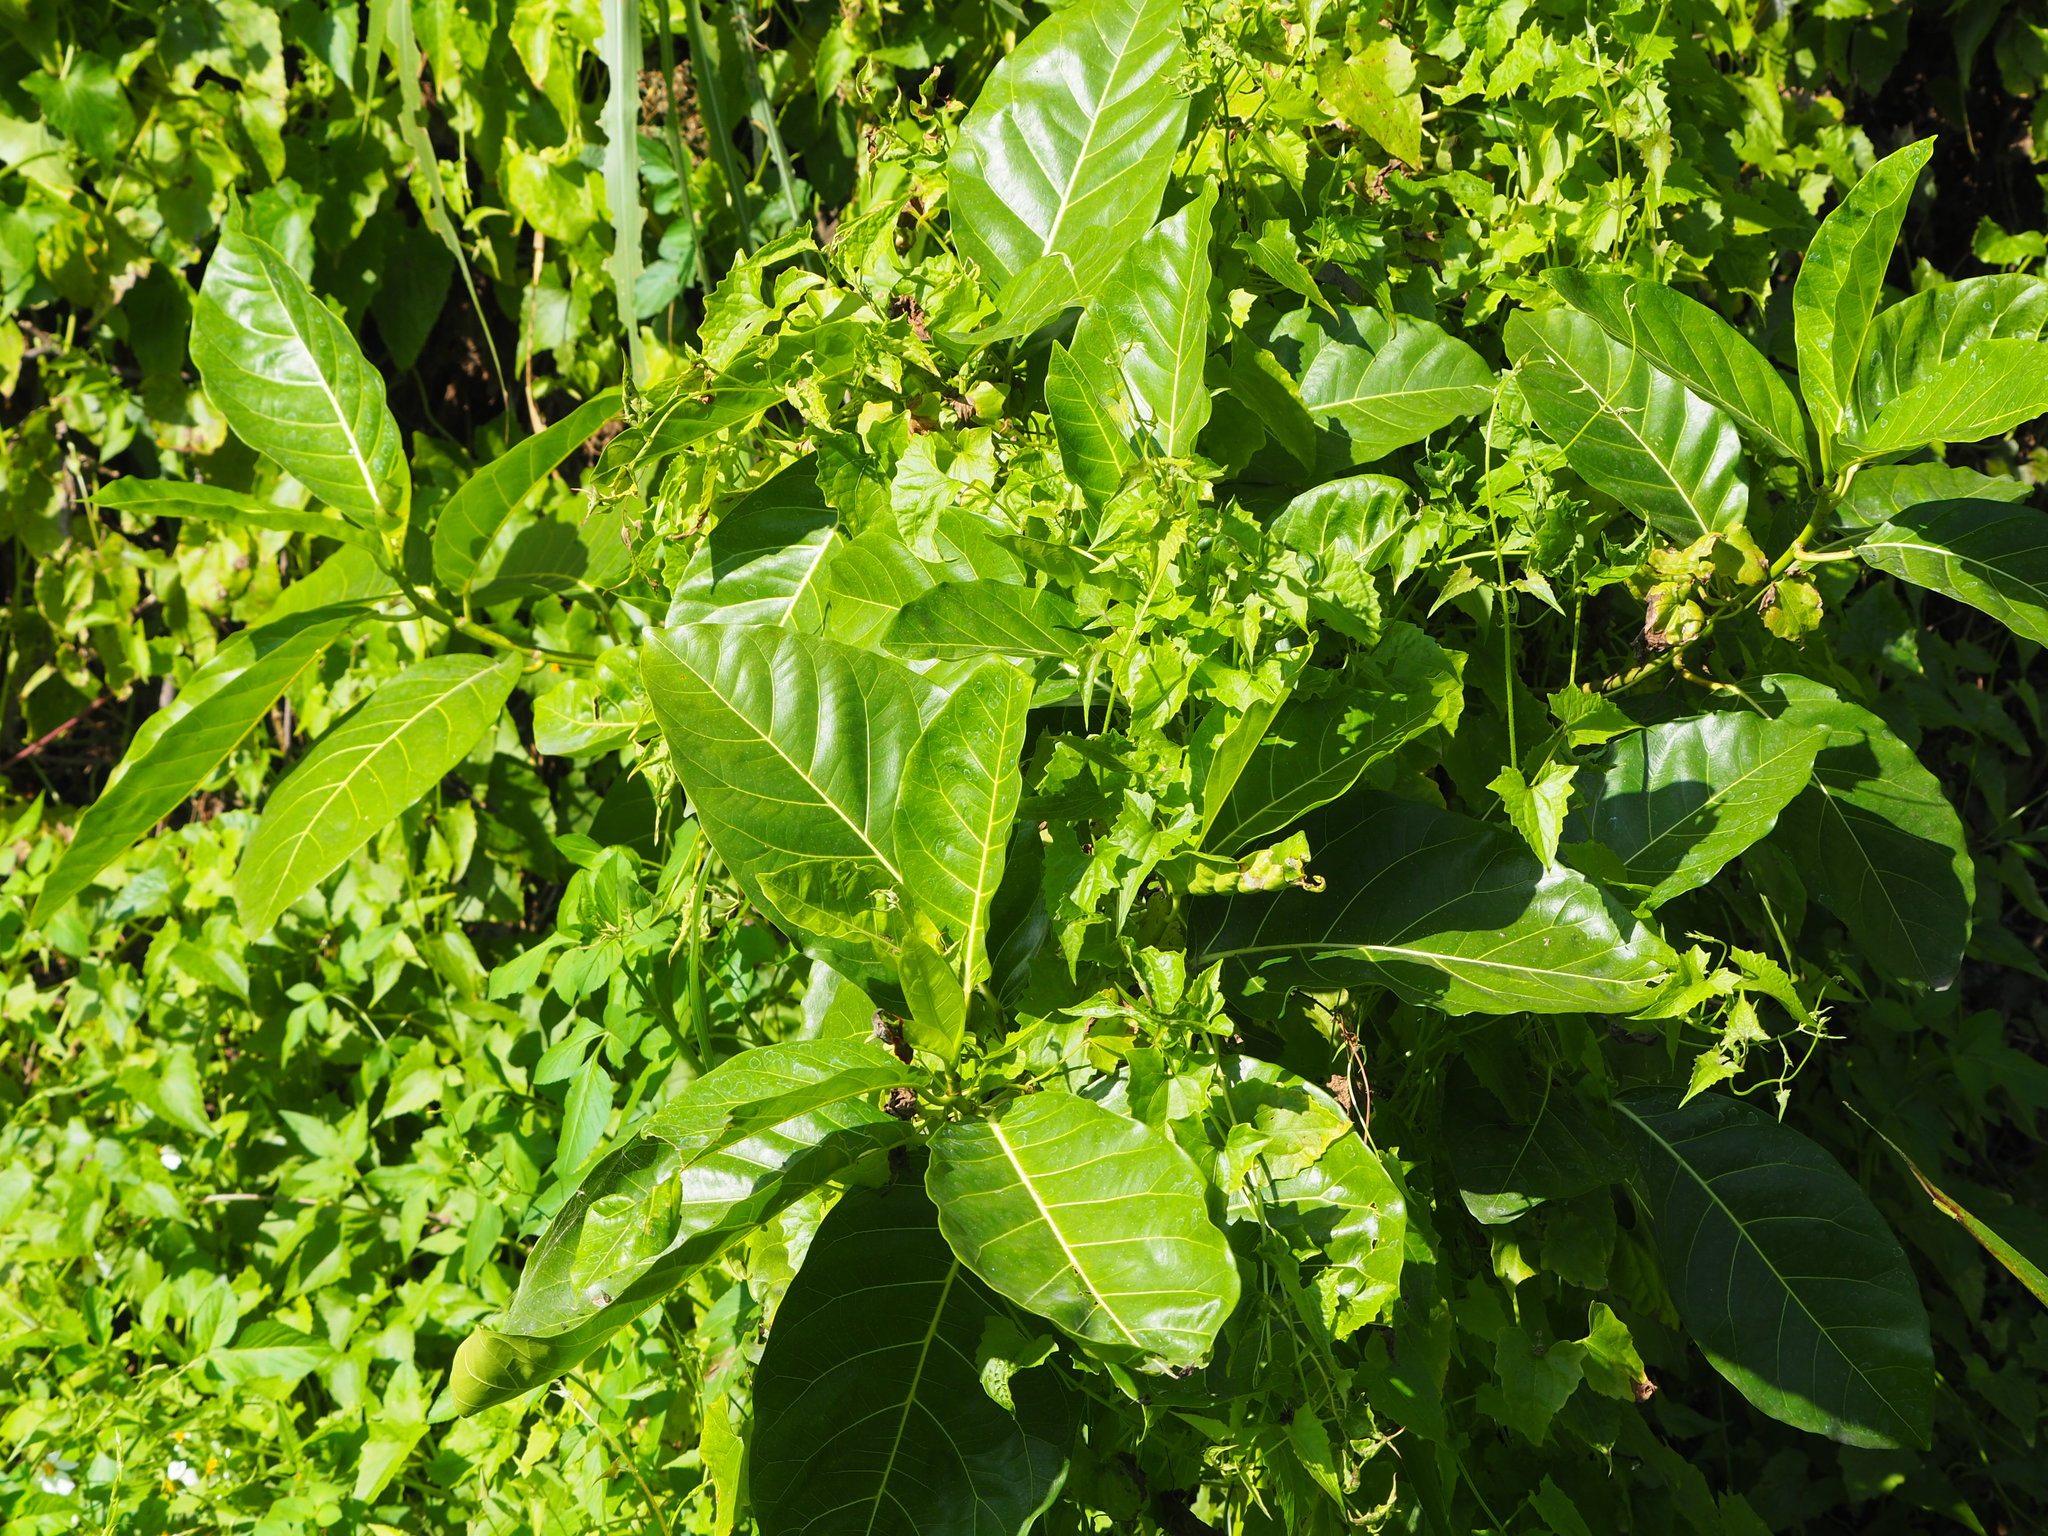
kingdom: Plantae
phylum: Tracheophyta
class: Magnoliopsida
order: Rosales
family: Moraceae
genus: Ficus
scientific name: Ficus septica
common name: Septic fig
